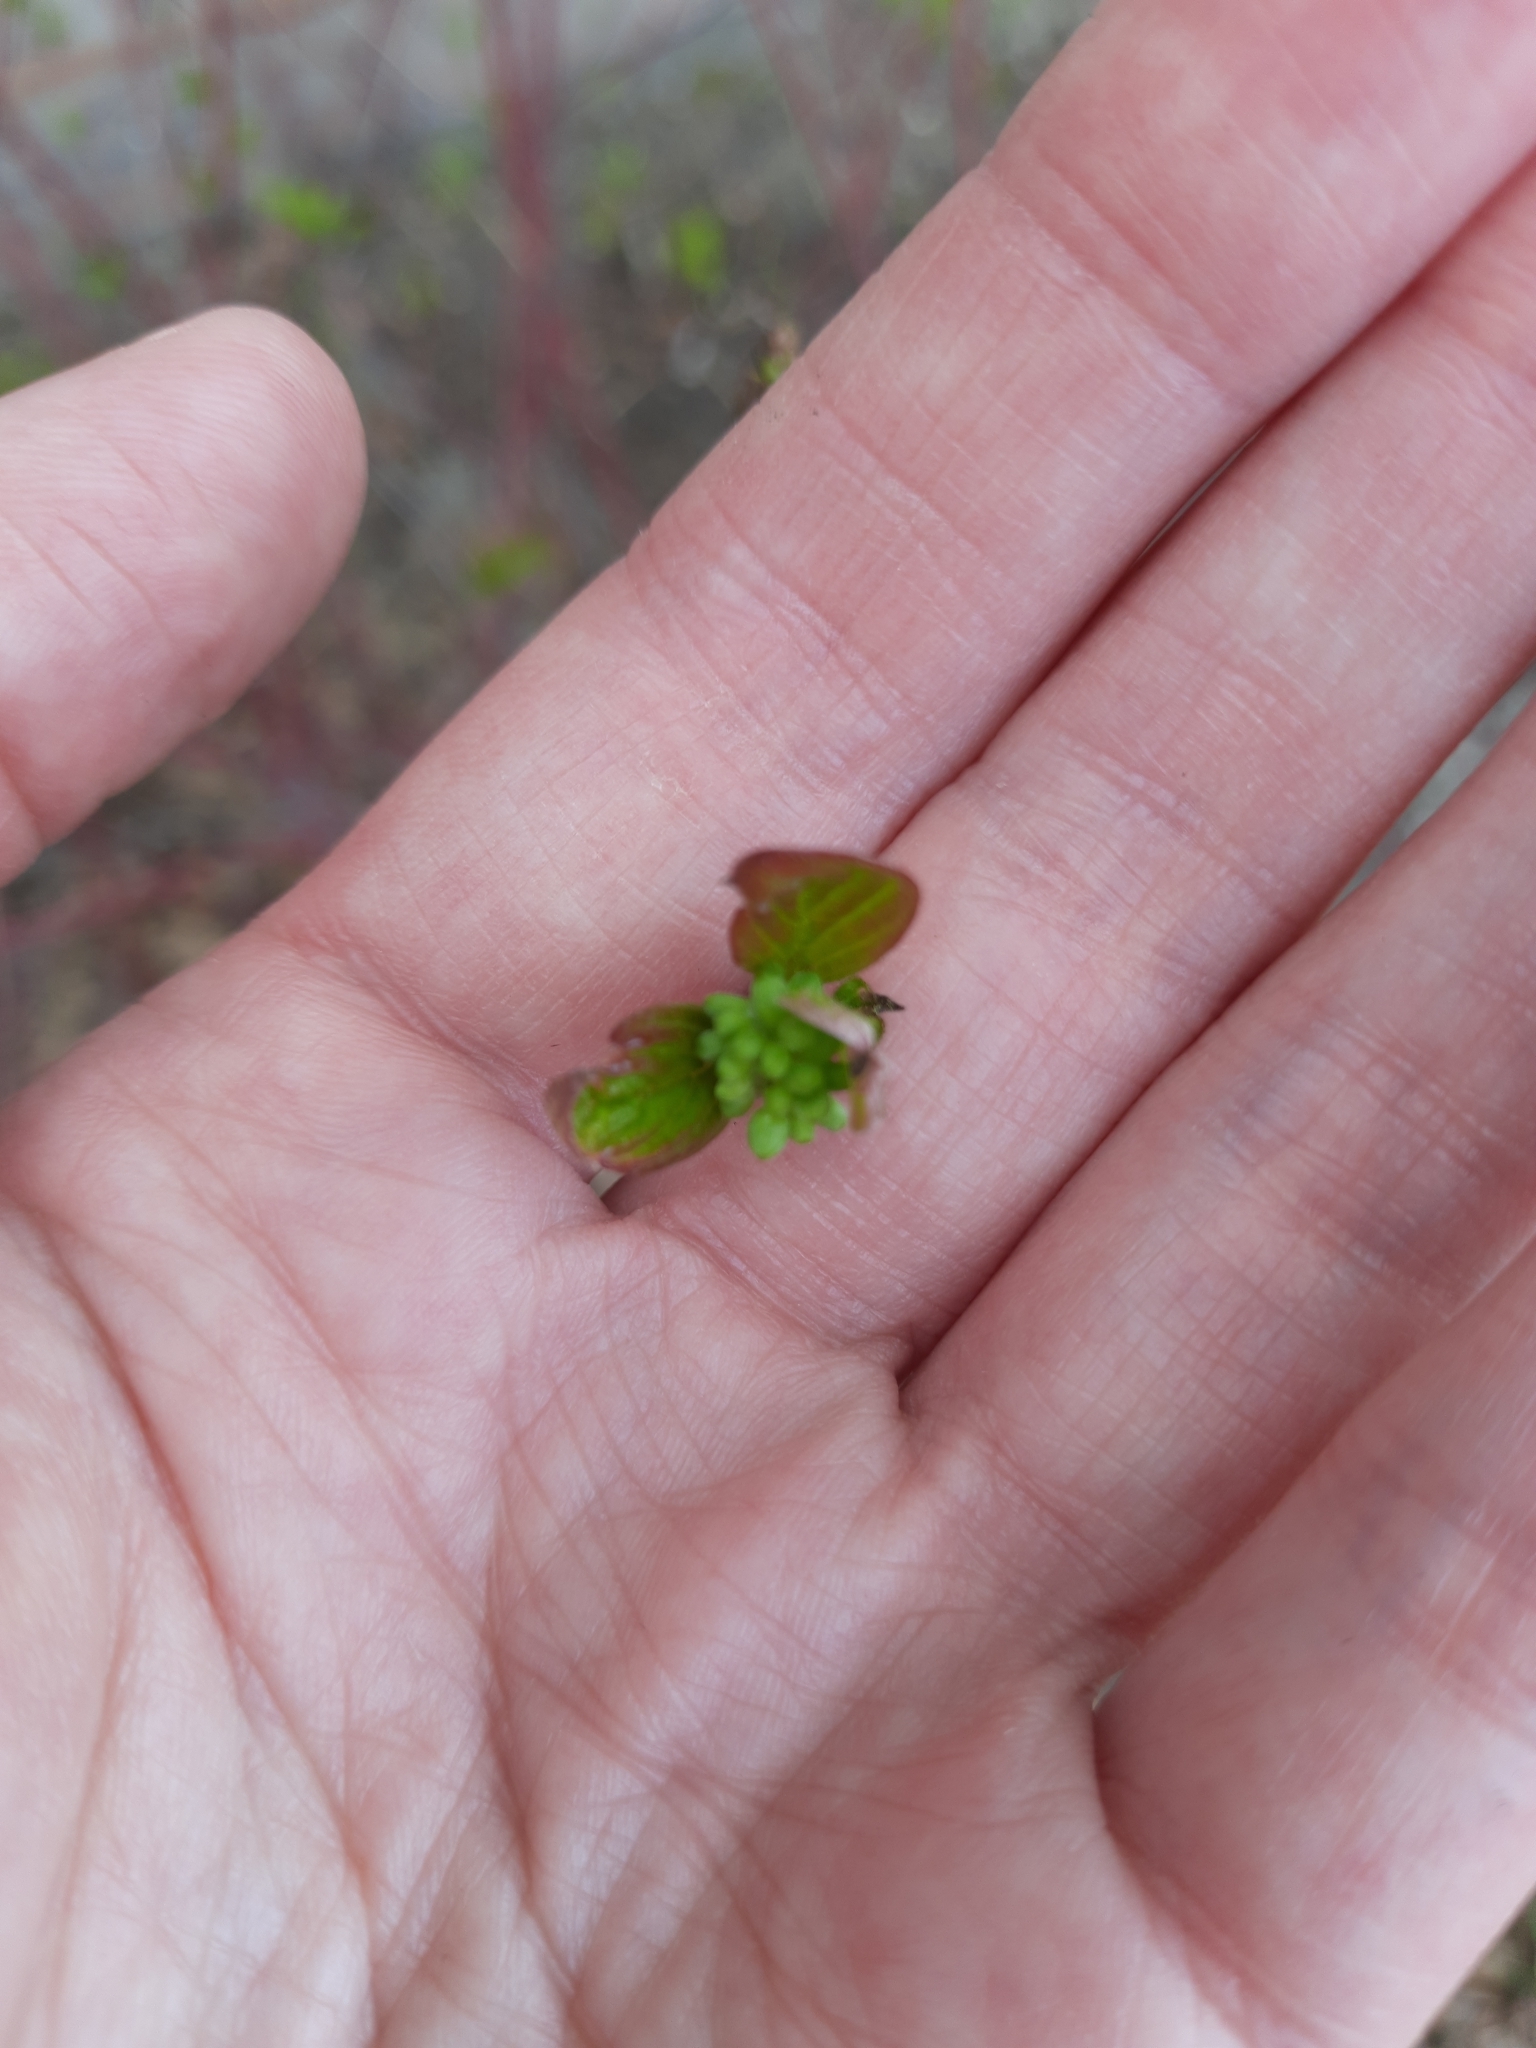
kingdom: Plantae
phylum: Tracheophyta
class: Magnoliopsida
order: Cornales
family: Cornaceae
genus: Cornus
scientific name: Cornus alba
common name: White dogwood
